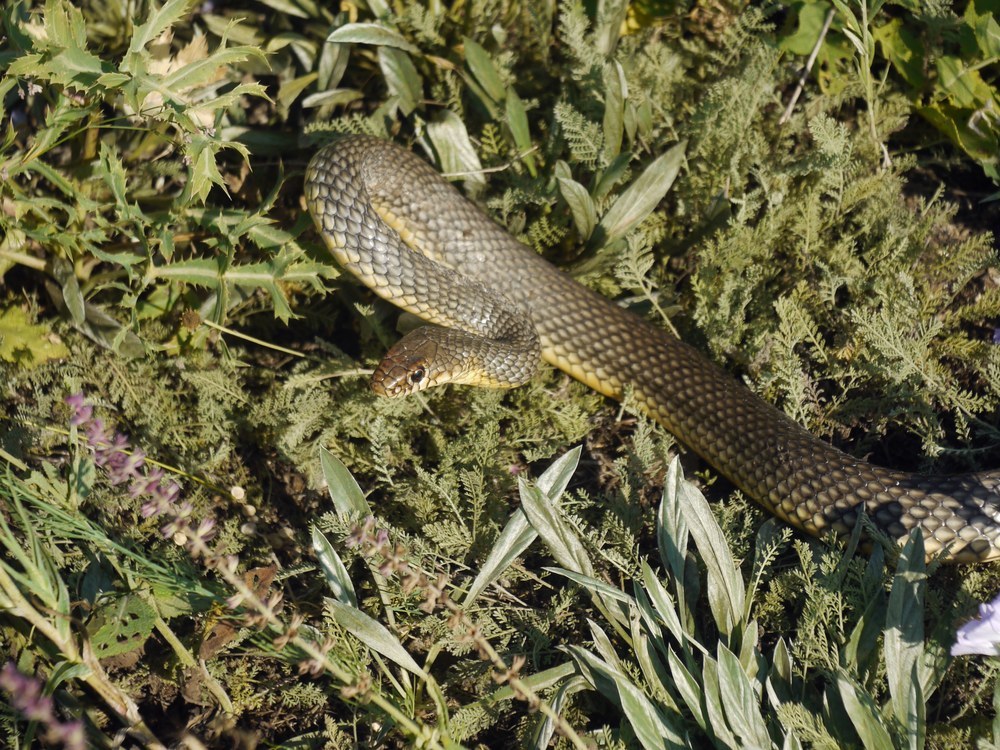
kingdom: Animalia
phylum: Chordata
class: Squamata
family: Colubridae
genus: Dolichophis
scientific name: Dolichophis caspius
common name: Large whip snake
